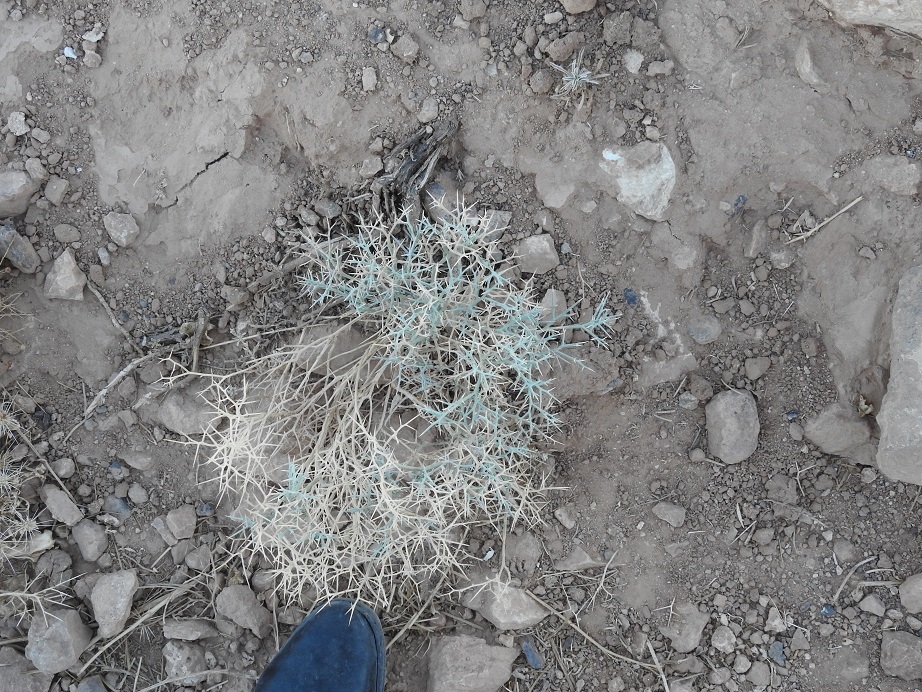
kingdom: Plantae
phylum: Tracheophyta
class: Magnoliopsida
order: Brassicales
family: Brassicaceae
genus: Zilla
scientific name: Zilla spinosa
